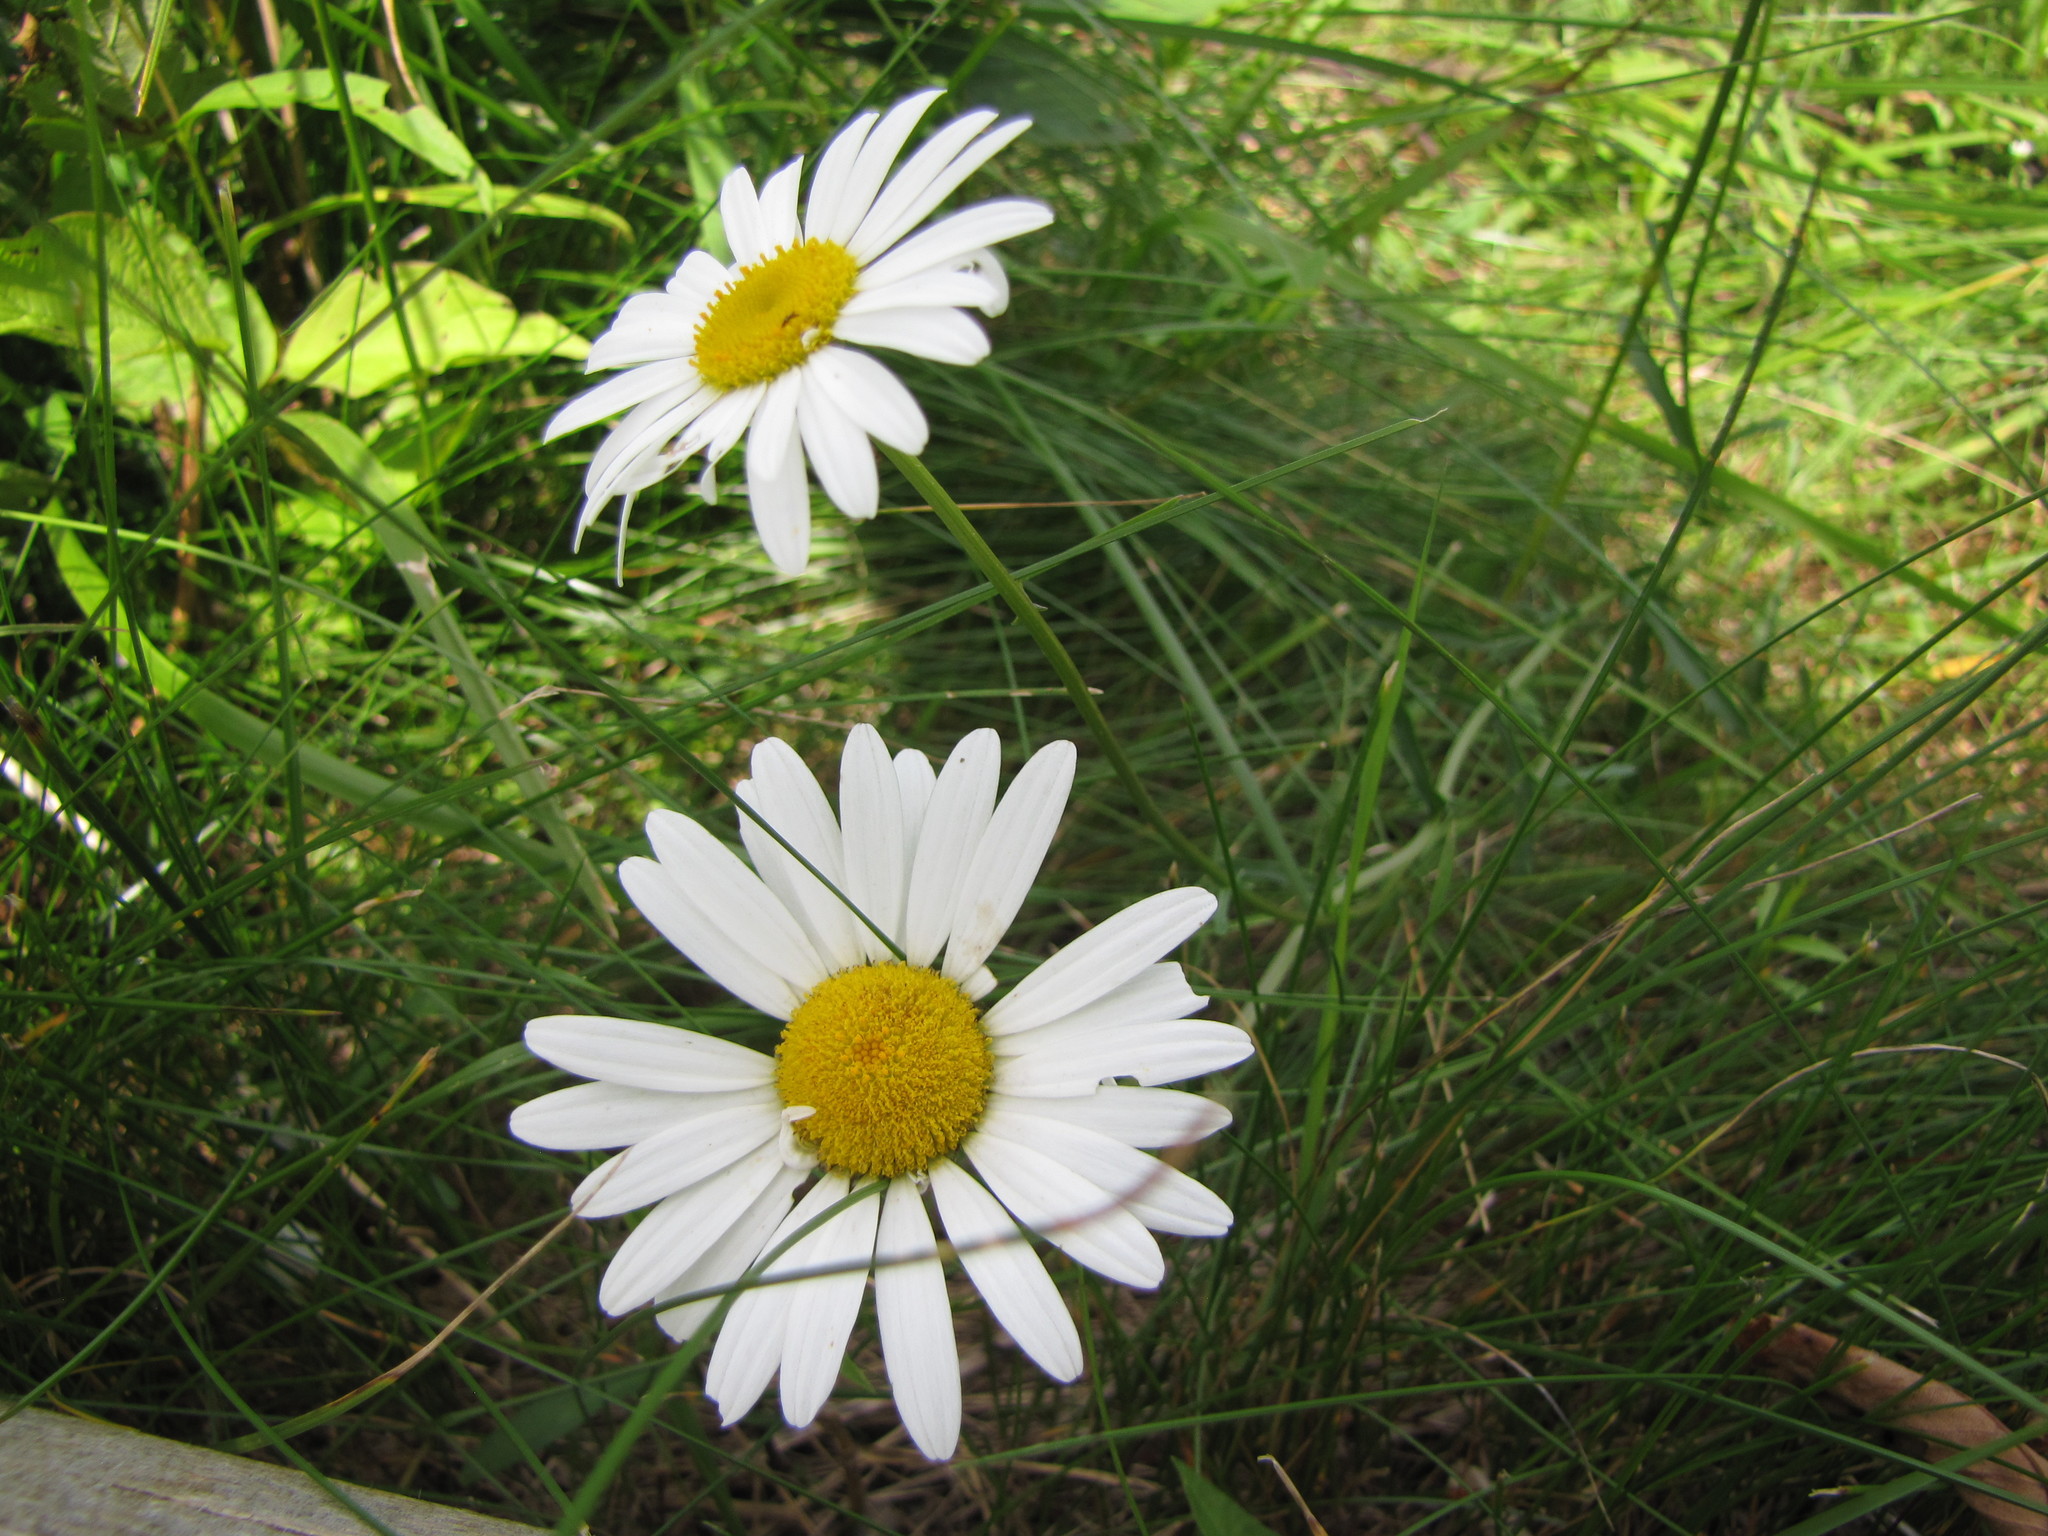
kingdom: Plantae
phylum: Tracheophyta
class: Magnoliopsida
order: Asterales
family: Asteraceae
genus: Leucanthemum
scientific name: Leucanthemum vulgare
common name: Oxeye daisy
